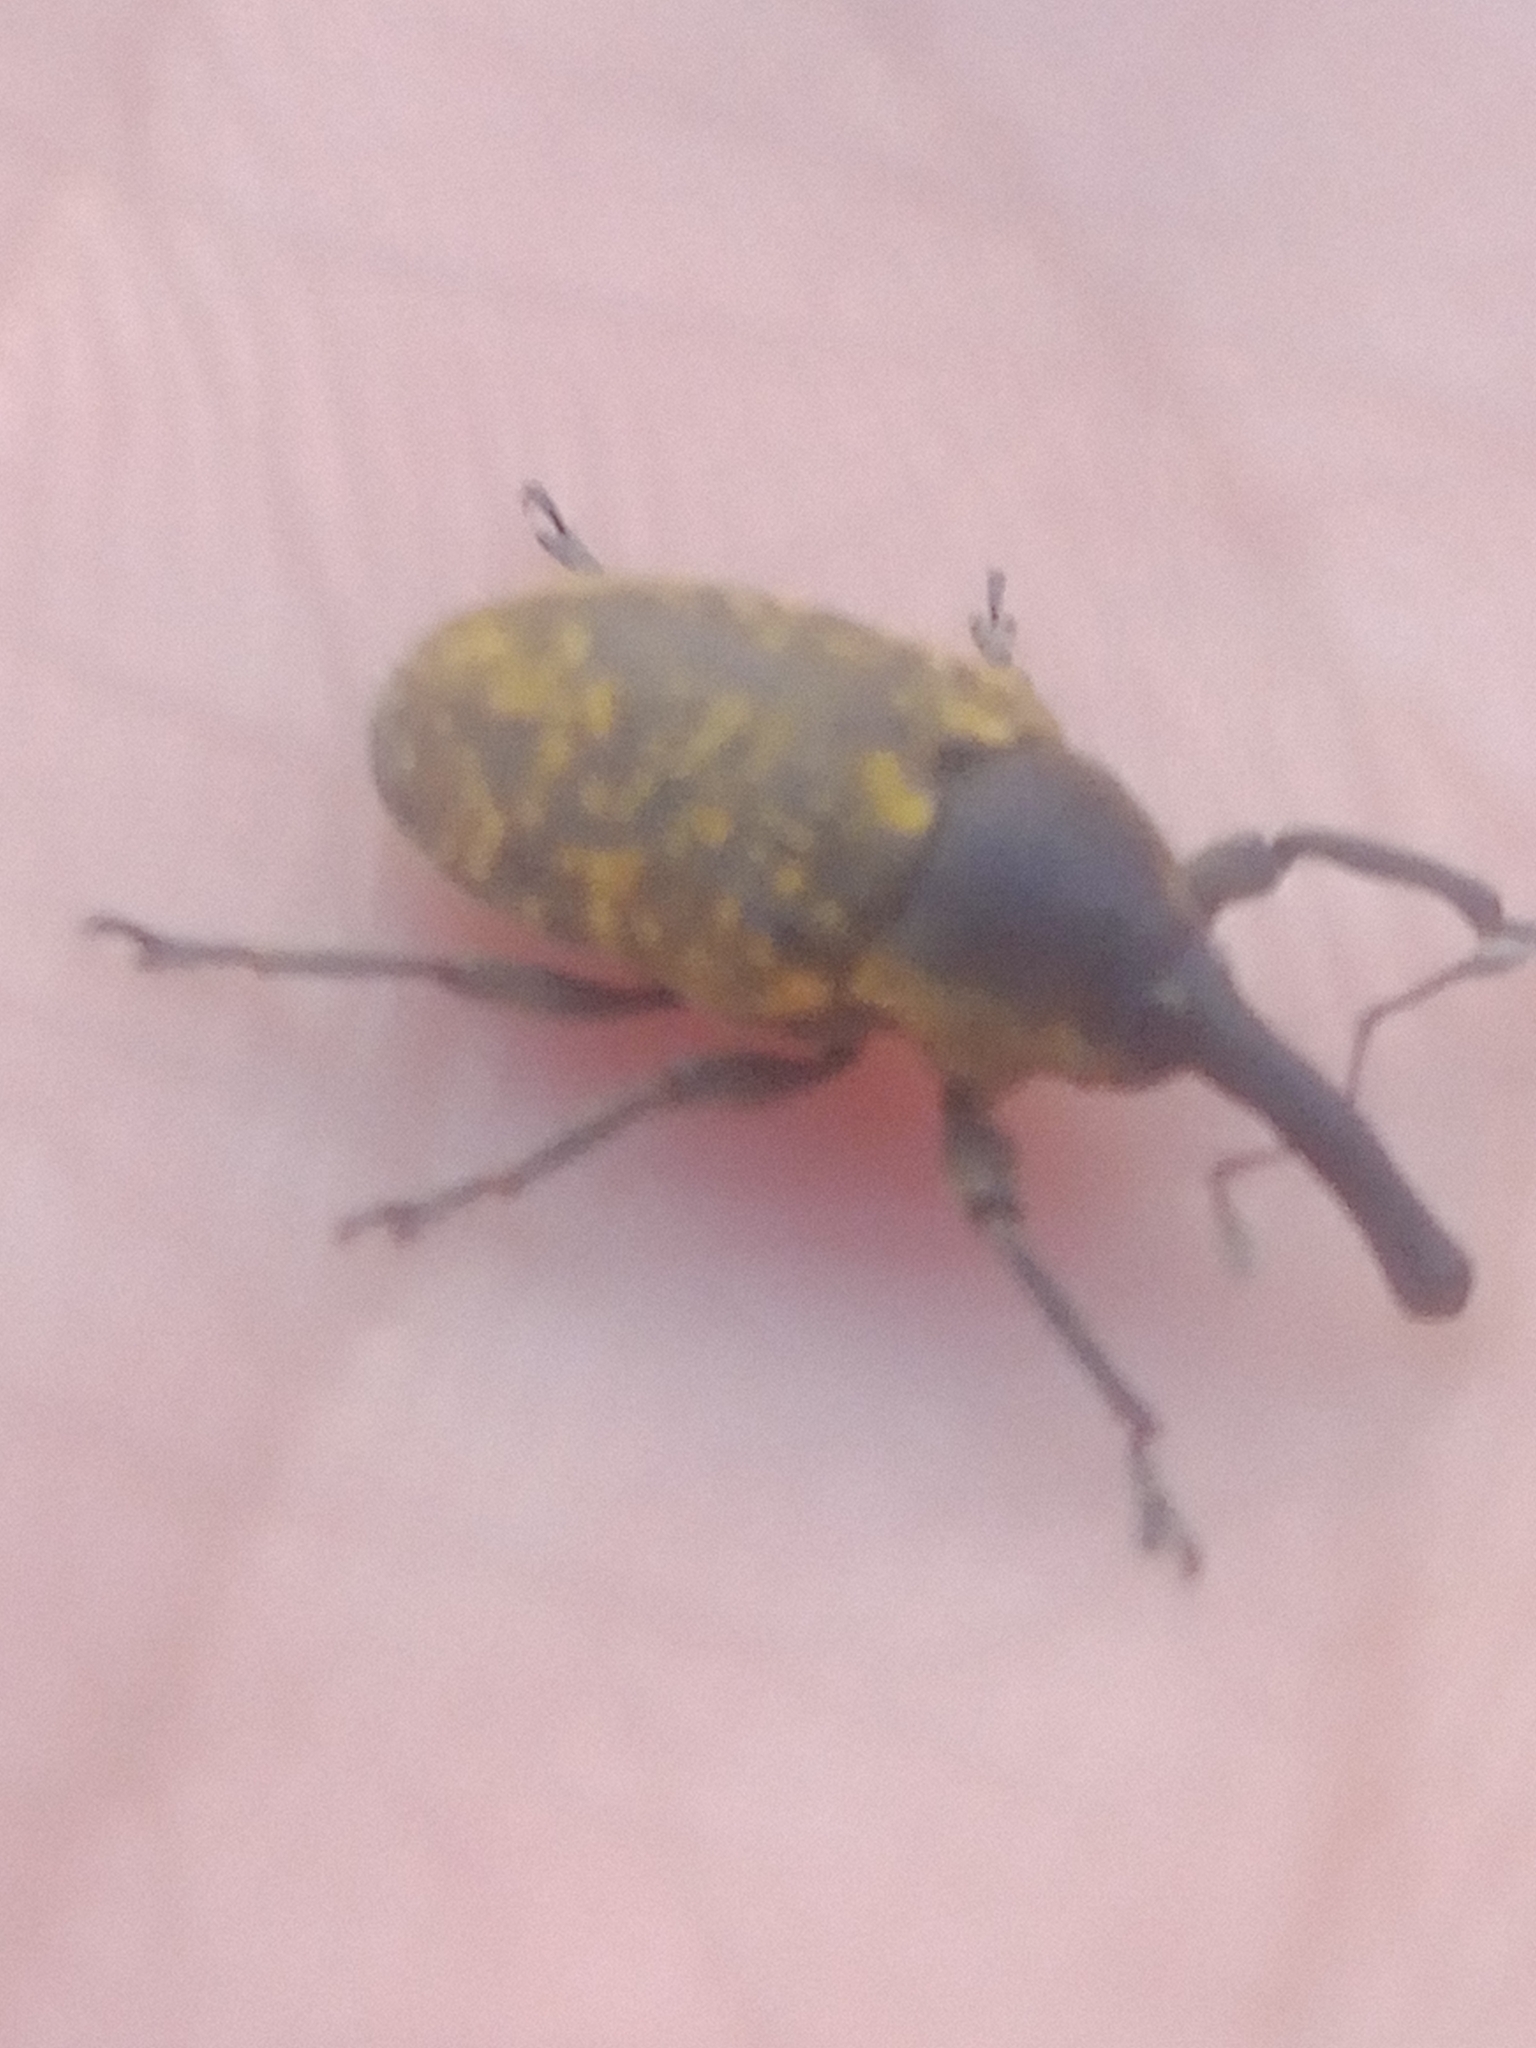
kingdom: Animalia
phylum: Arthropoda
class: Insecta
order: Coleoptera
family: Curculionidae
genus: Larinus
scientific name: Larinus sturnus
